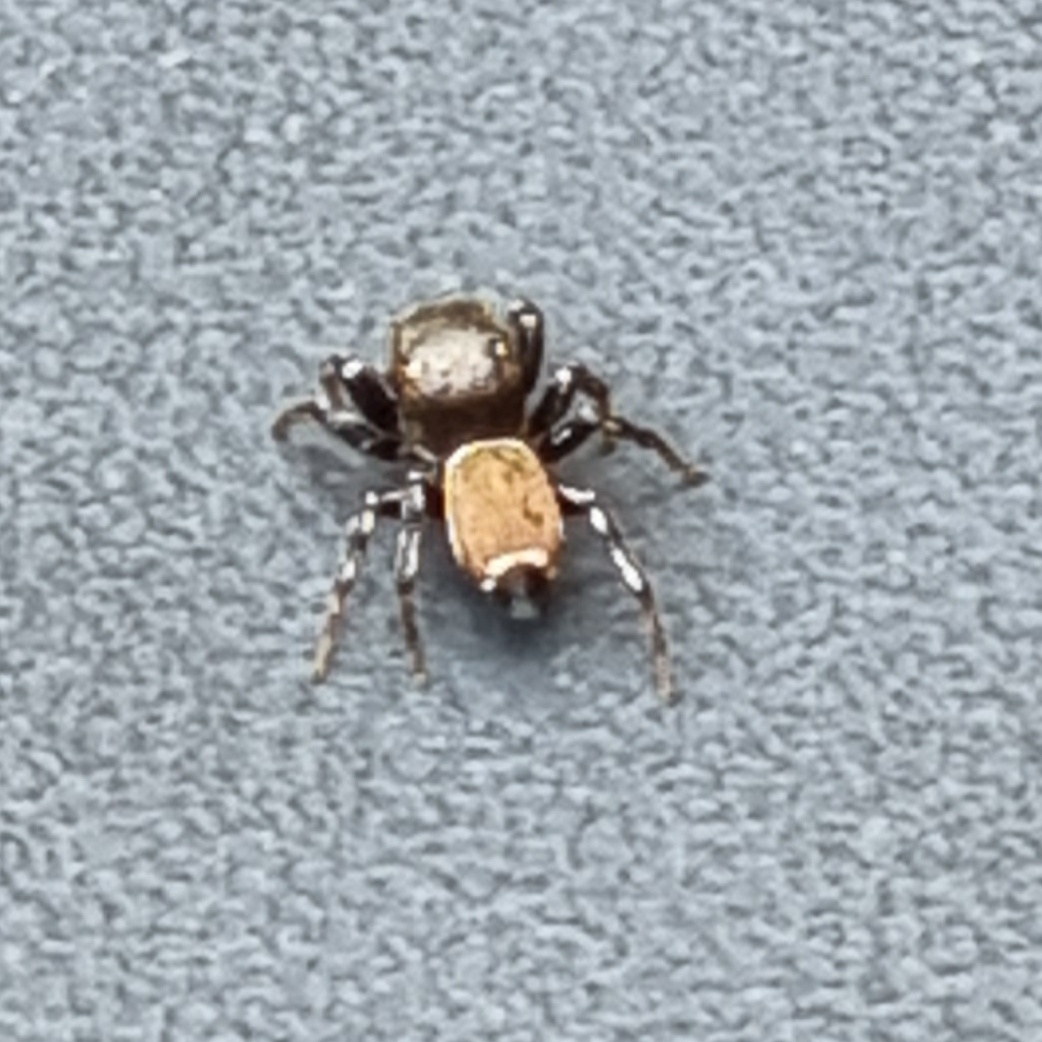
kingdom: Animalia
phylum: Arthropoda
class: Arachnida
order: Araneae
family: Salticidae
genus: Heliophanus
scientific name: Heliophanus tribulosus
